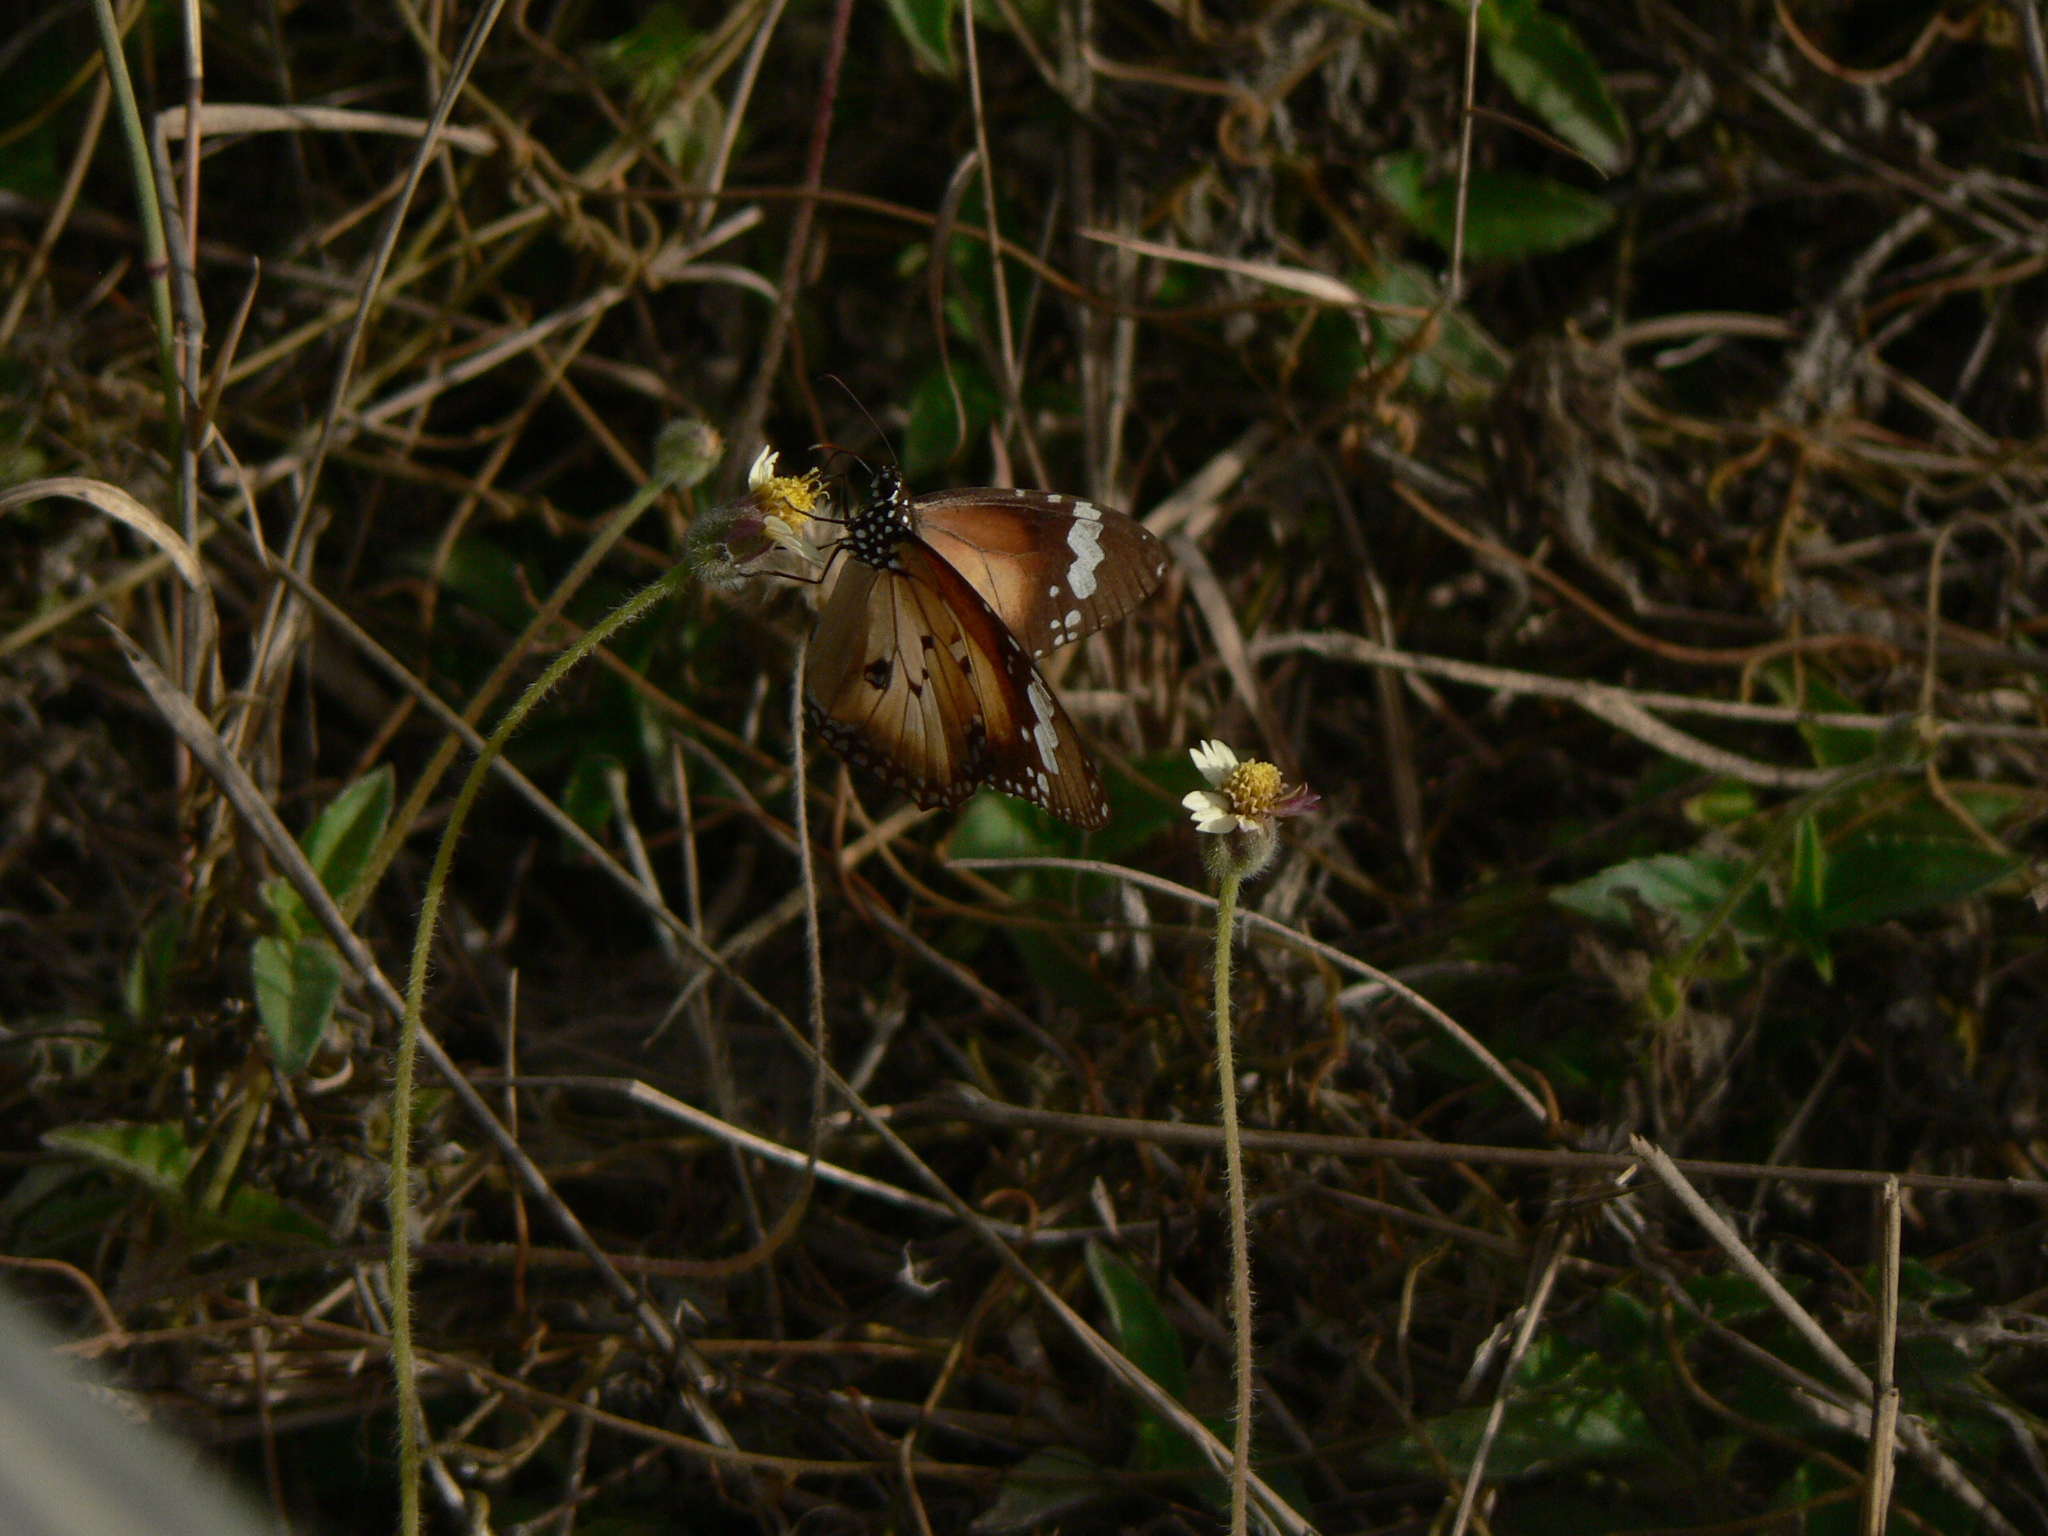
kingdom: Animalia
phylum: Arthropoda
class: Insecta
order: Lepidoptera
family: Nymphalidae
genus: Danaus
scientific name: Danaus chrysippus
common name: Plain tiger
